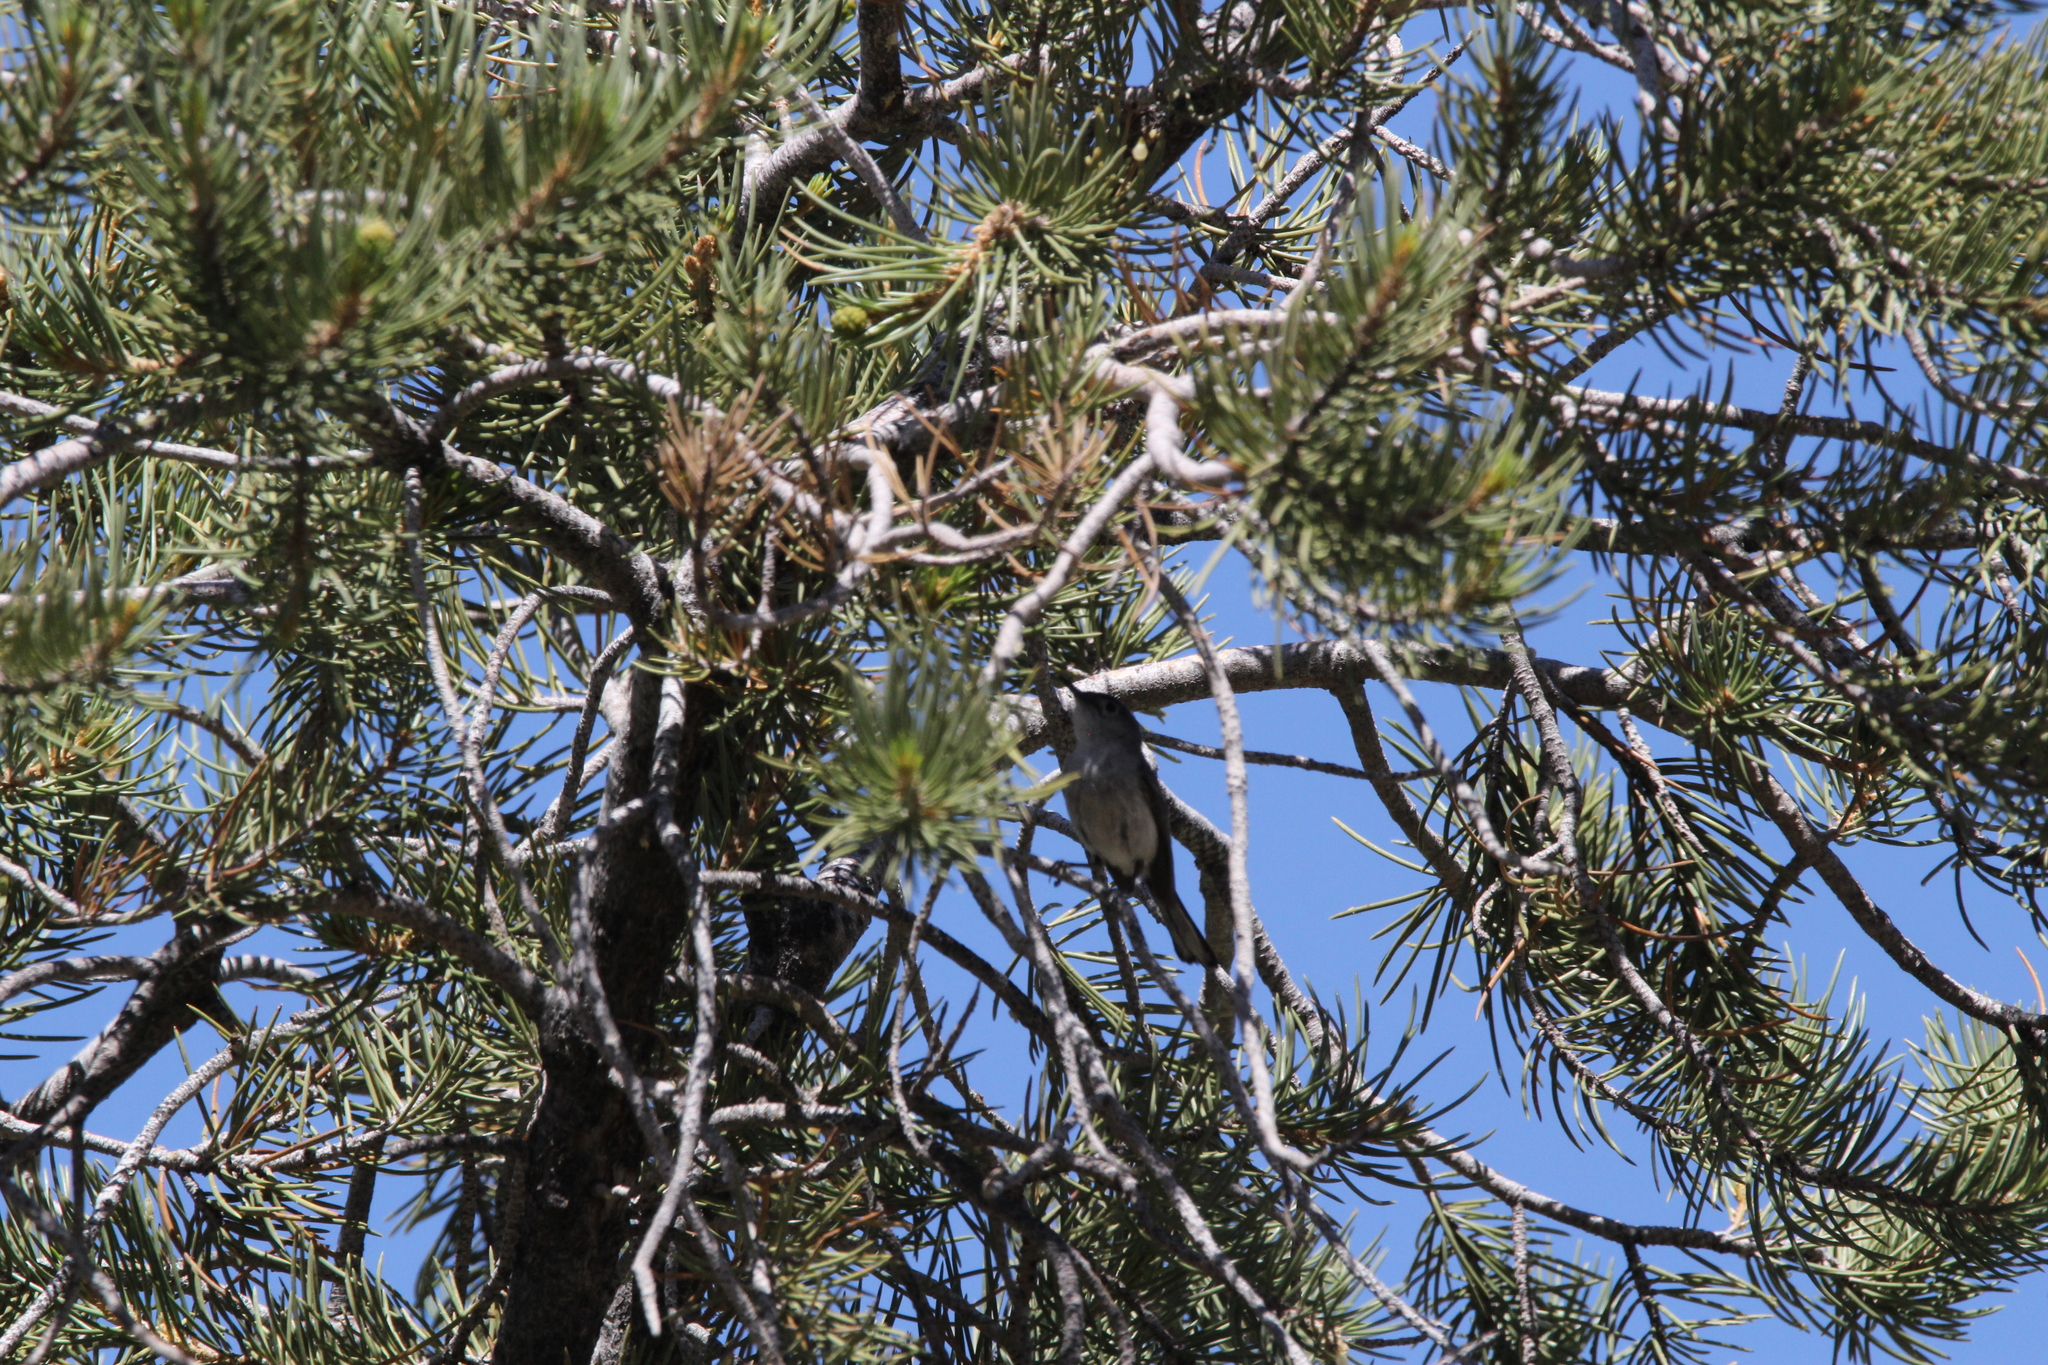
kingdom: Animalia
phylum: Chordata
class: Aves
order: Passeriformes
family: Polioptilidae
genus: Polioptila
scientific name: Polioptila caerulea
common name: Blue-gray gnatcatcher
